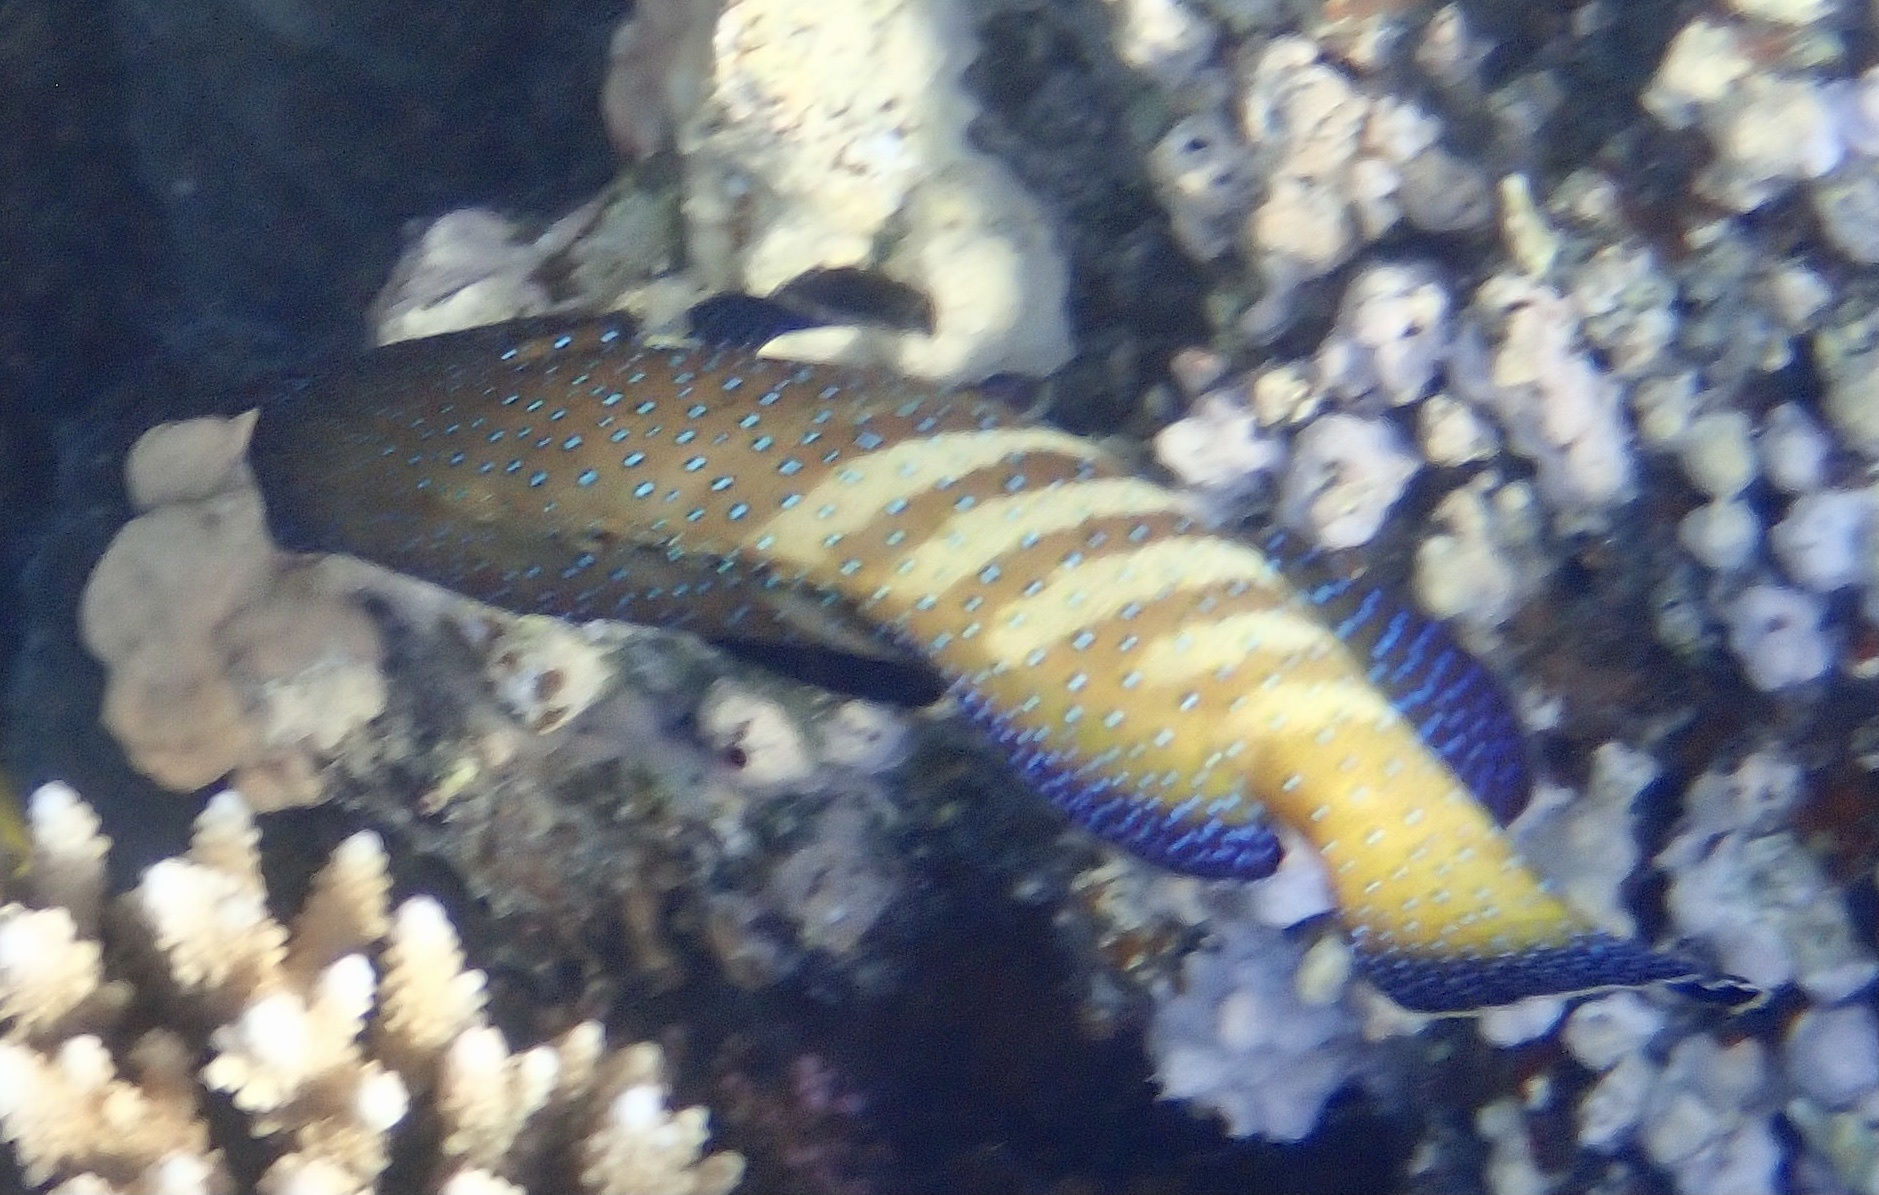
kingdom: Animalia
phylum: Chordata
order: Perciformes
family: Serranidae
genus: Cephalopholis
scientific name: Cephalopholis argus
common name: Peacock grouper
